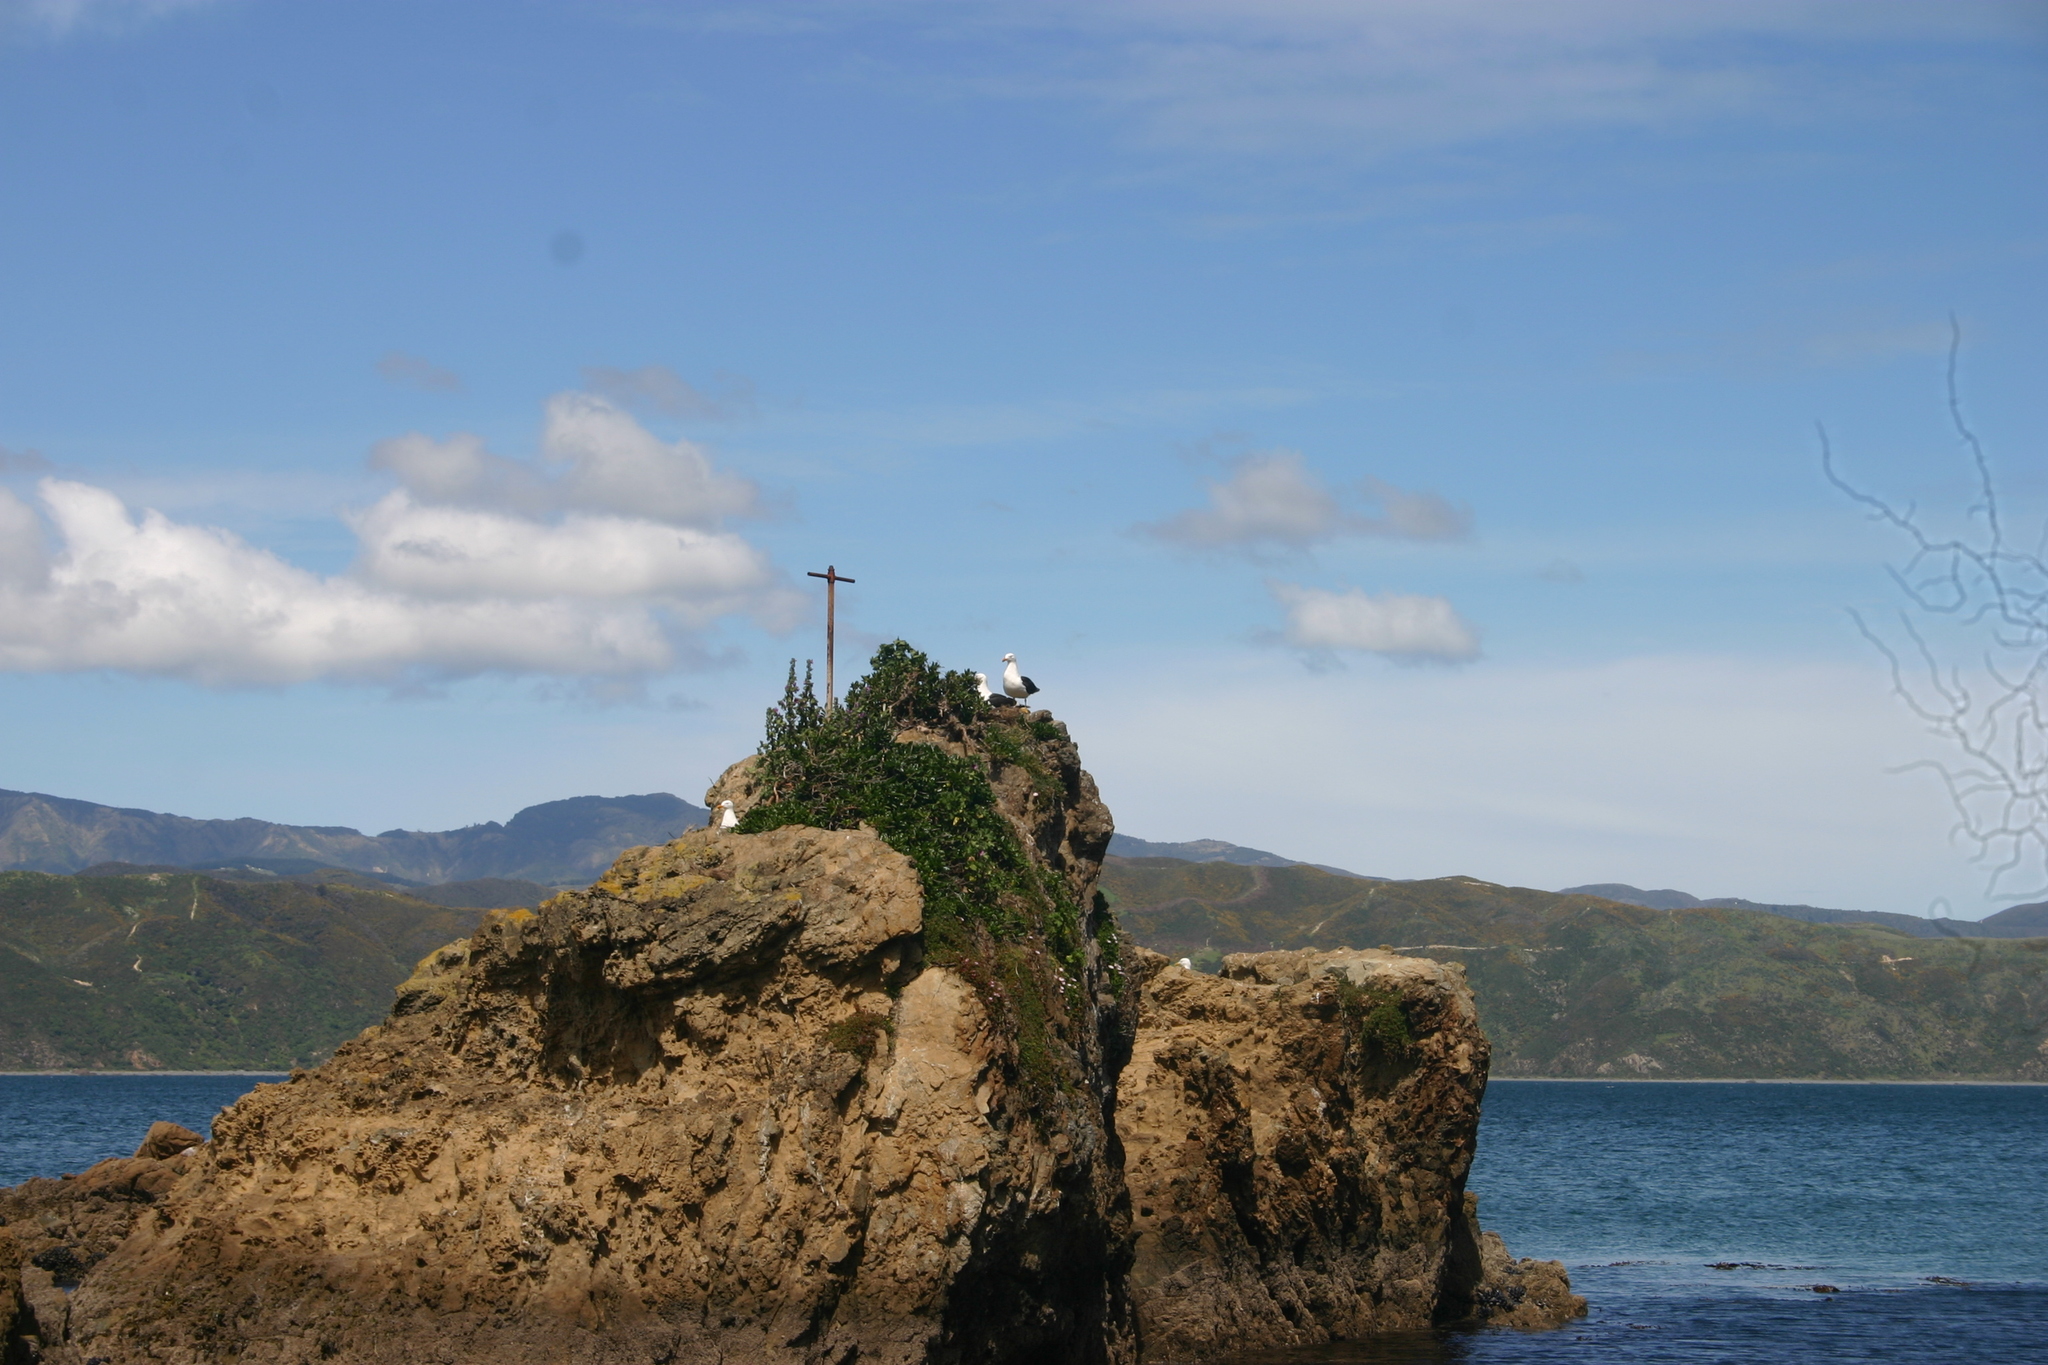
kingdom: Animalia
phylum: Chordata
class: Aves
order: Charadriiformes
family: Laridae
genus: Larus
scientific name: Larus dominicanus
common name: Kelp gull
